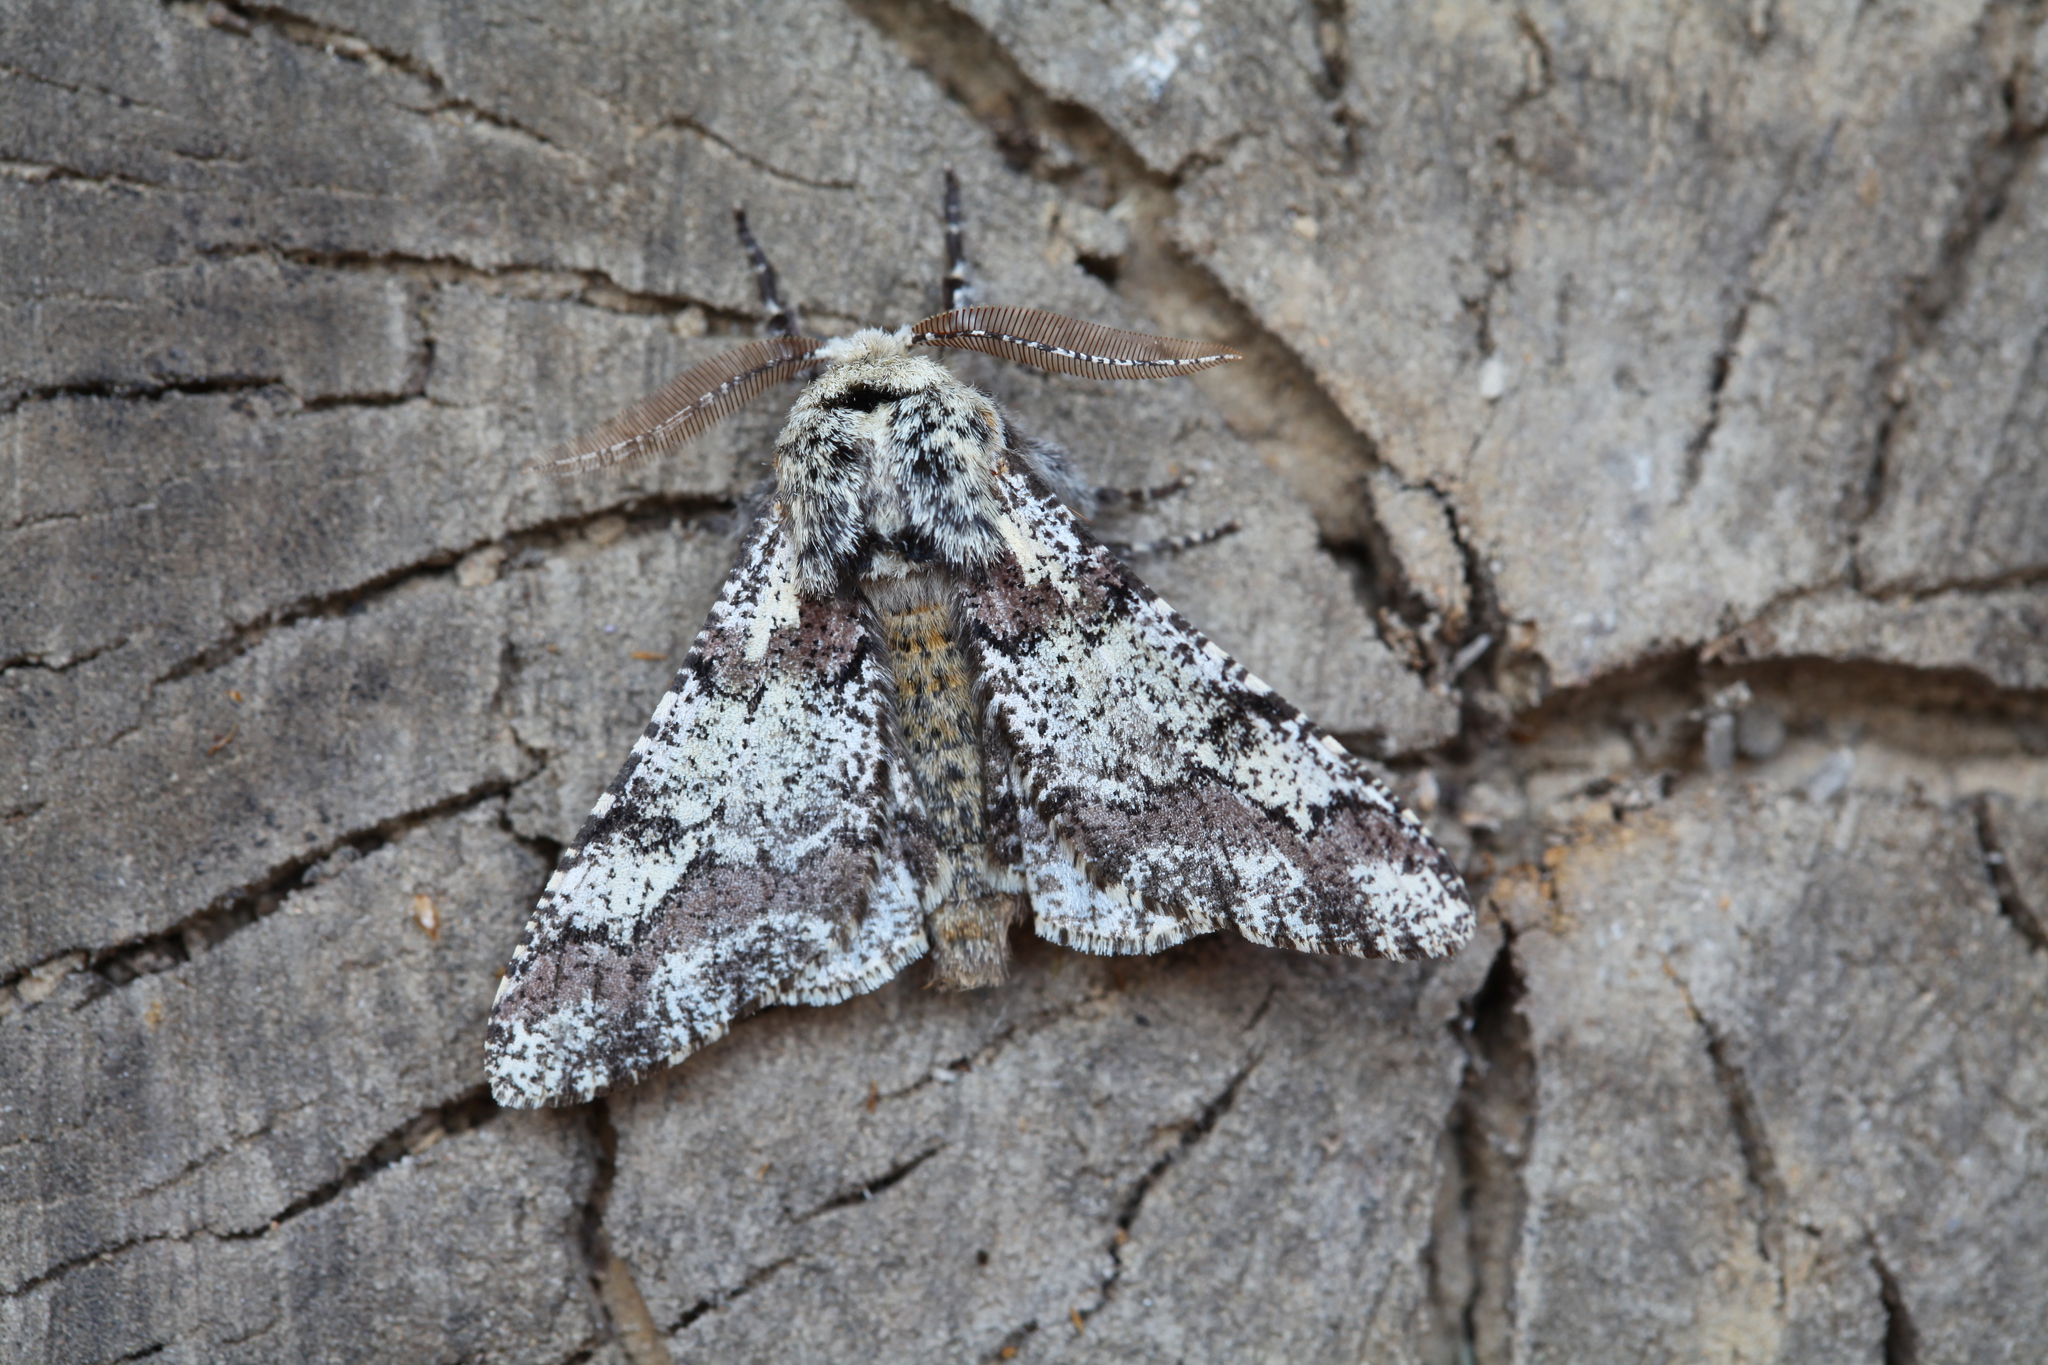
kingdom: Animalia
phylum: Arthropoda
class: Insecta
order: Lepidoptera
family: Geometridae
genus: Biston
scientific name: Biston strataria
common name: Oak beauty
